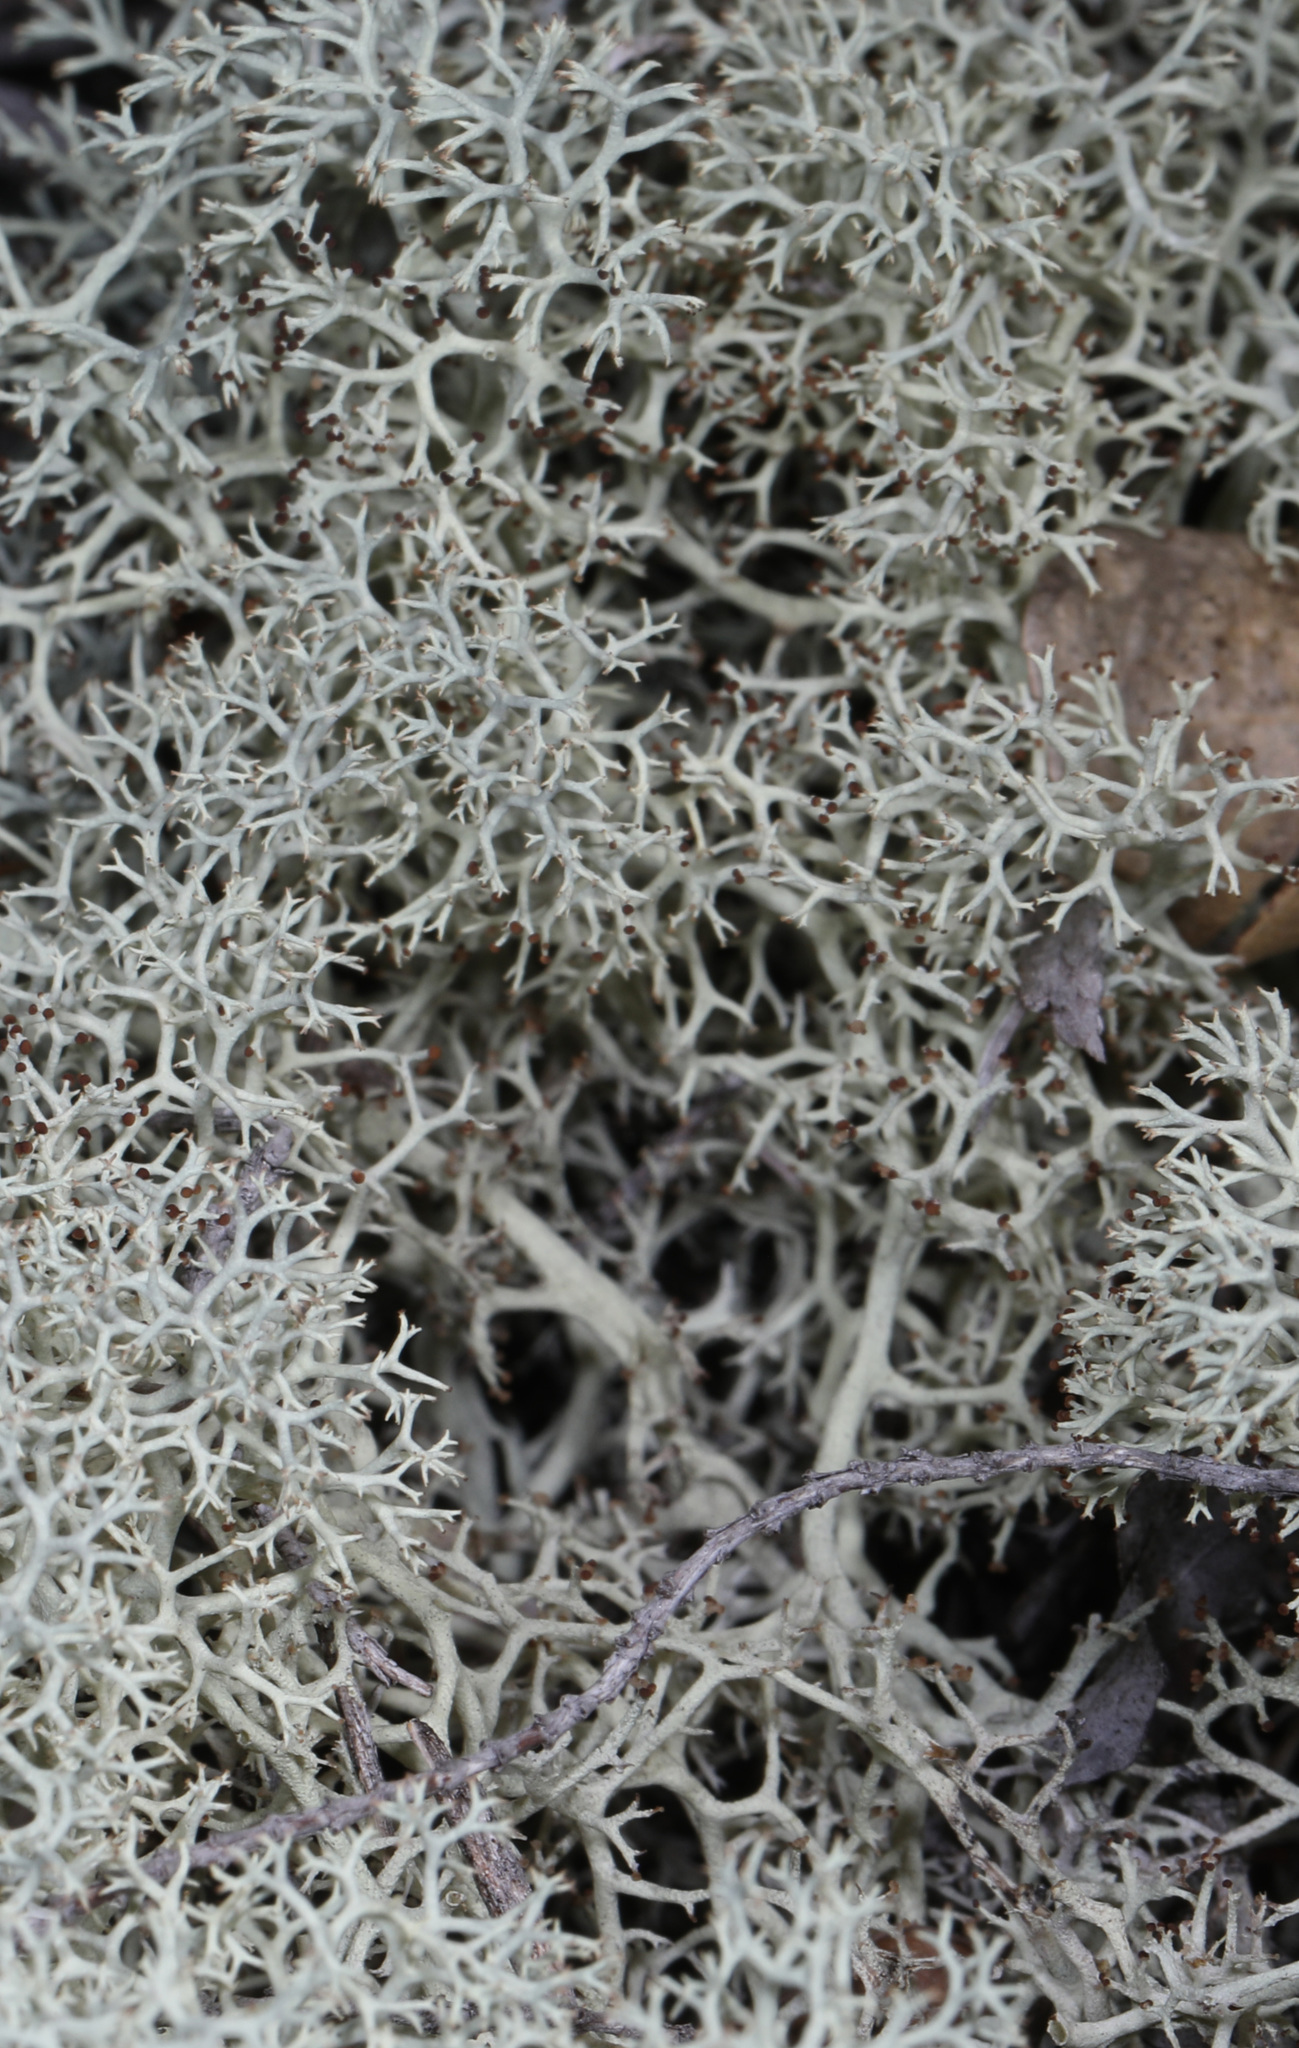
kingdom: Fungi
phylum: Ascomycota
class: Lecanoromycetes
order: Lecanorales
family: Cladoniaceae
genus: Cladonia
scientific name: Cladonia subtenuis
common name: Dixie reindeer lichen
